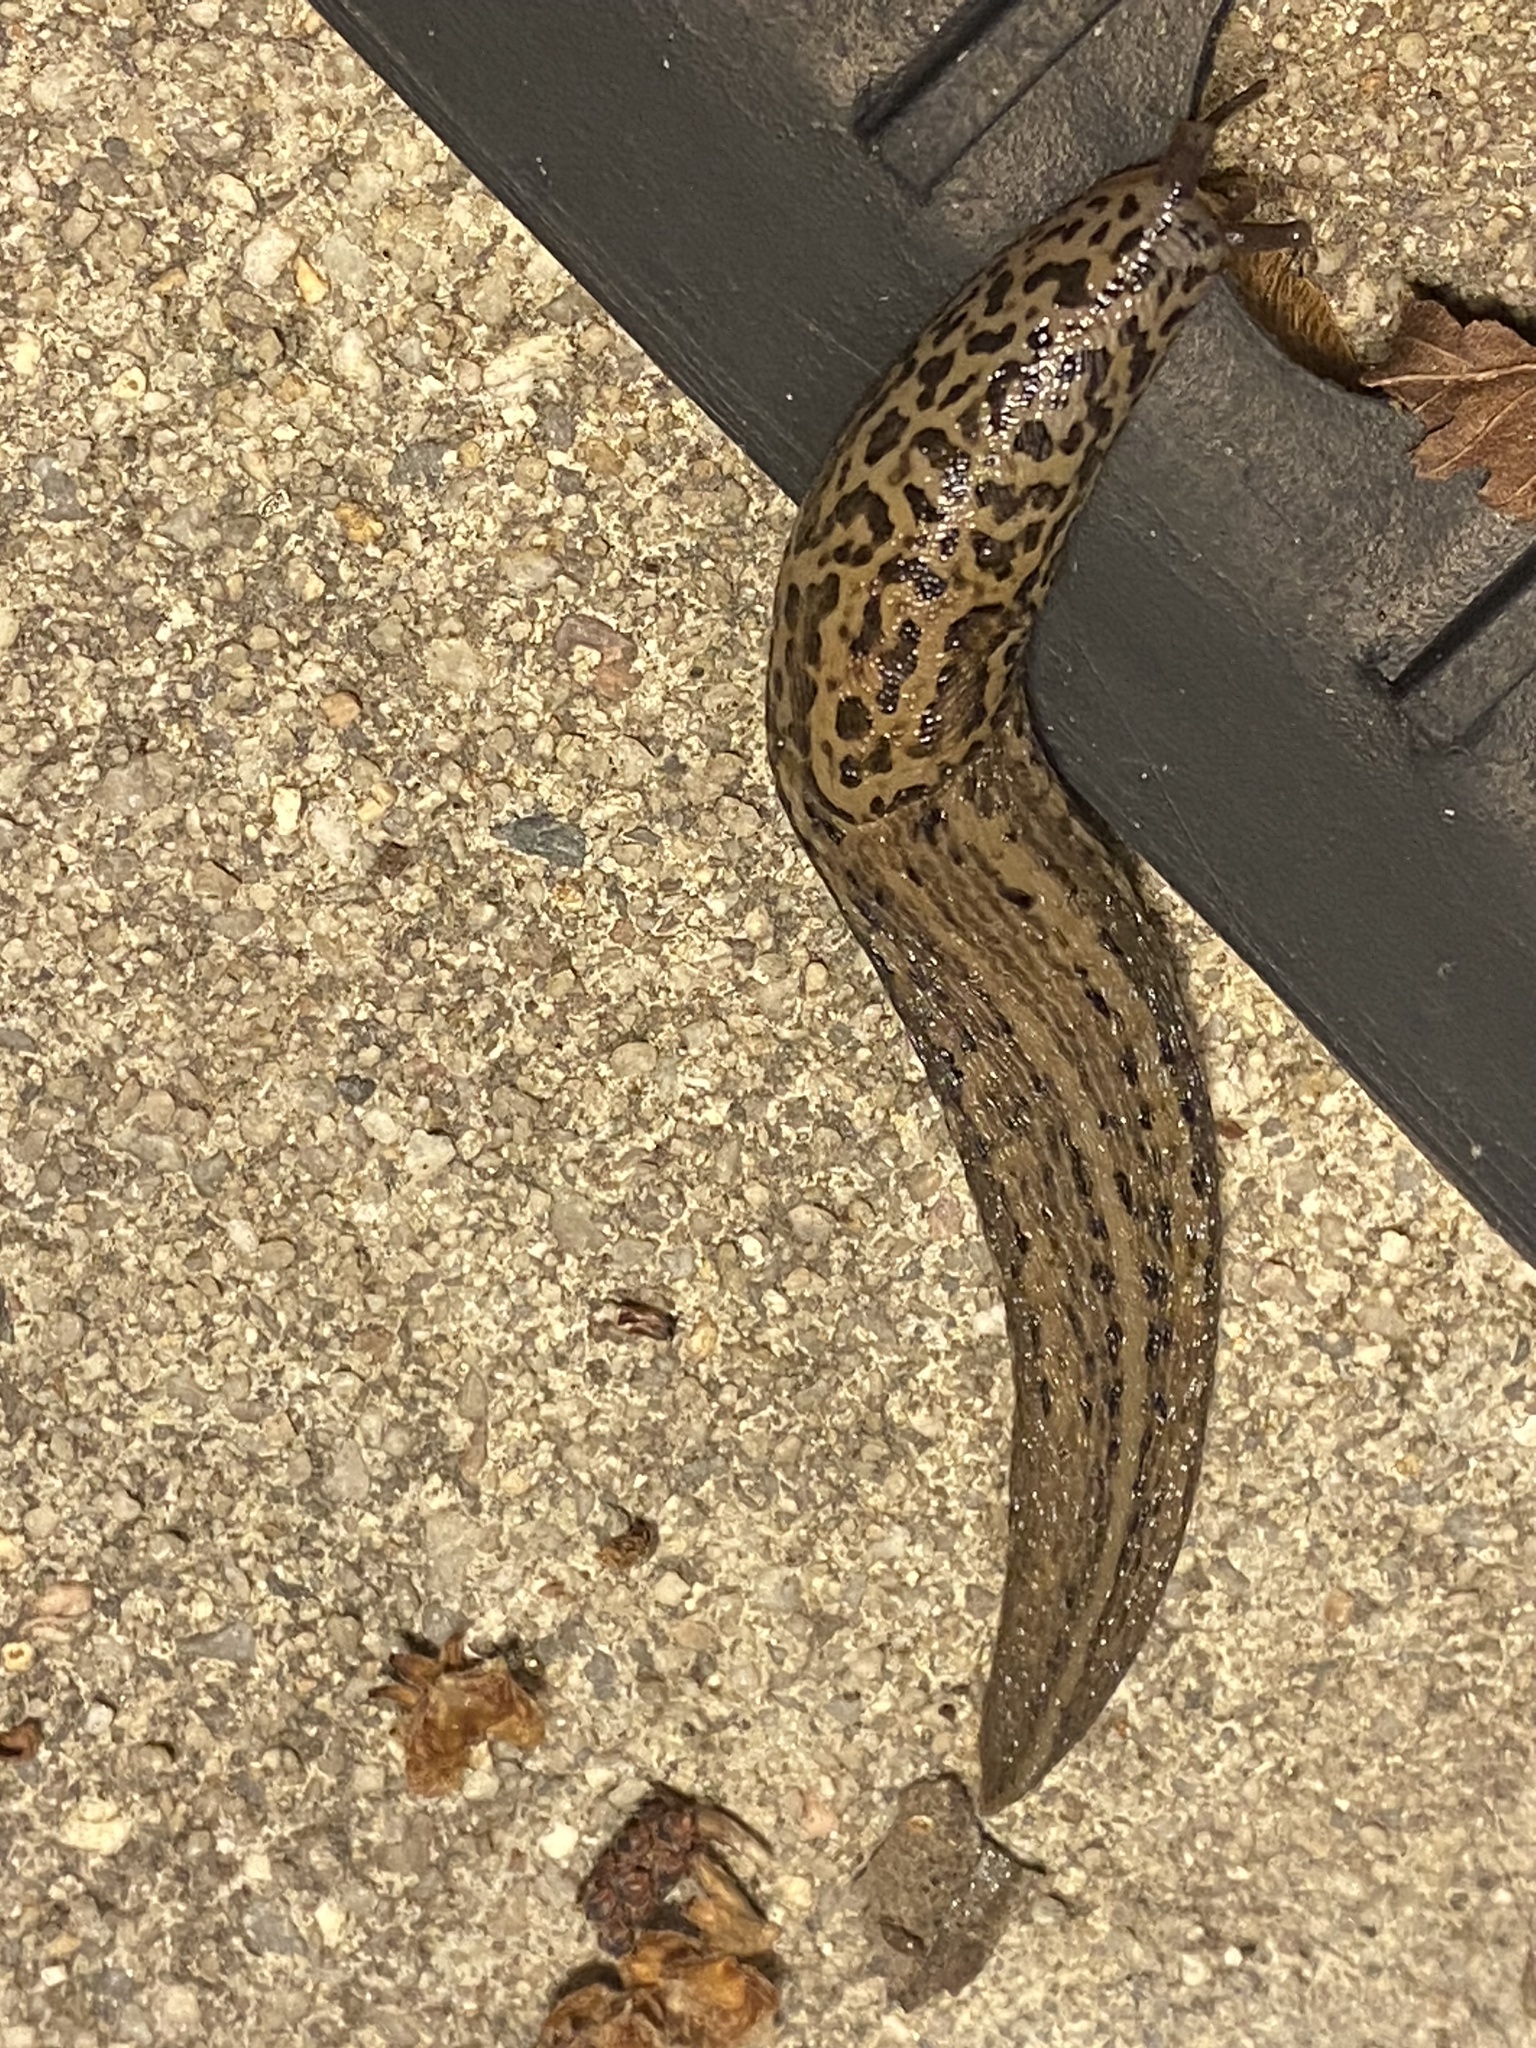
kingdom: Animalia
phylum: Mollusca
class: Gastropoda
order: Stylommatophora
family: Limacidae
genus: Limax
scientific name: Limax maximus
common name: Great grey slug
